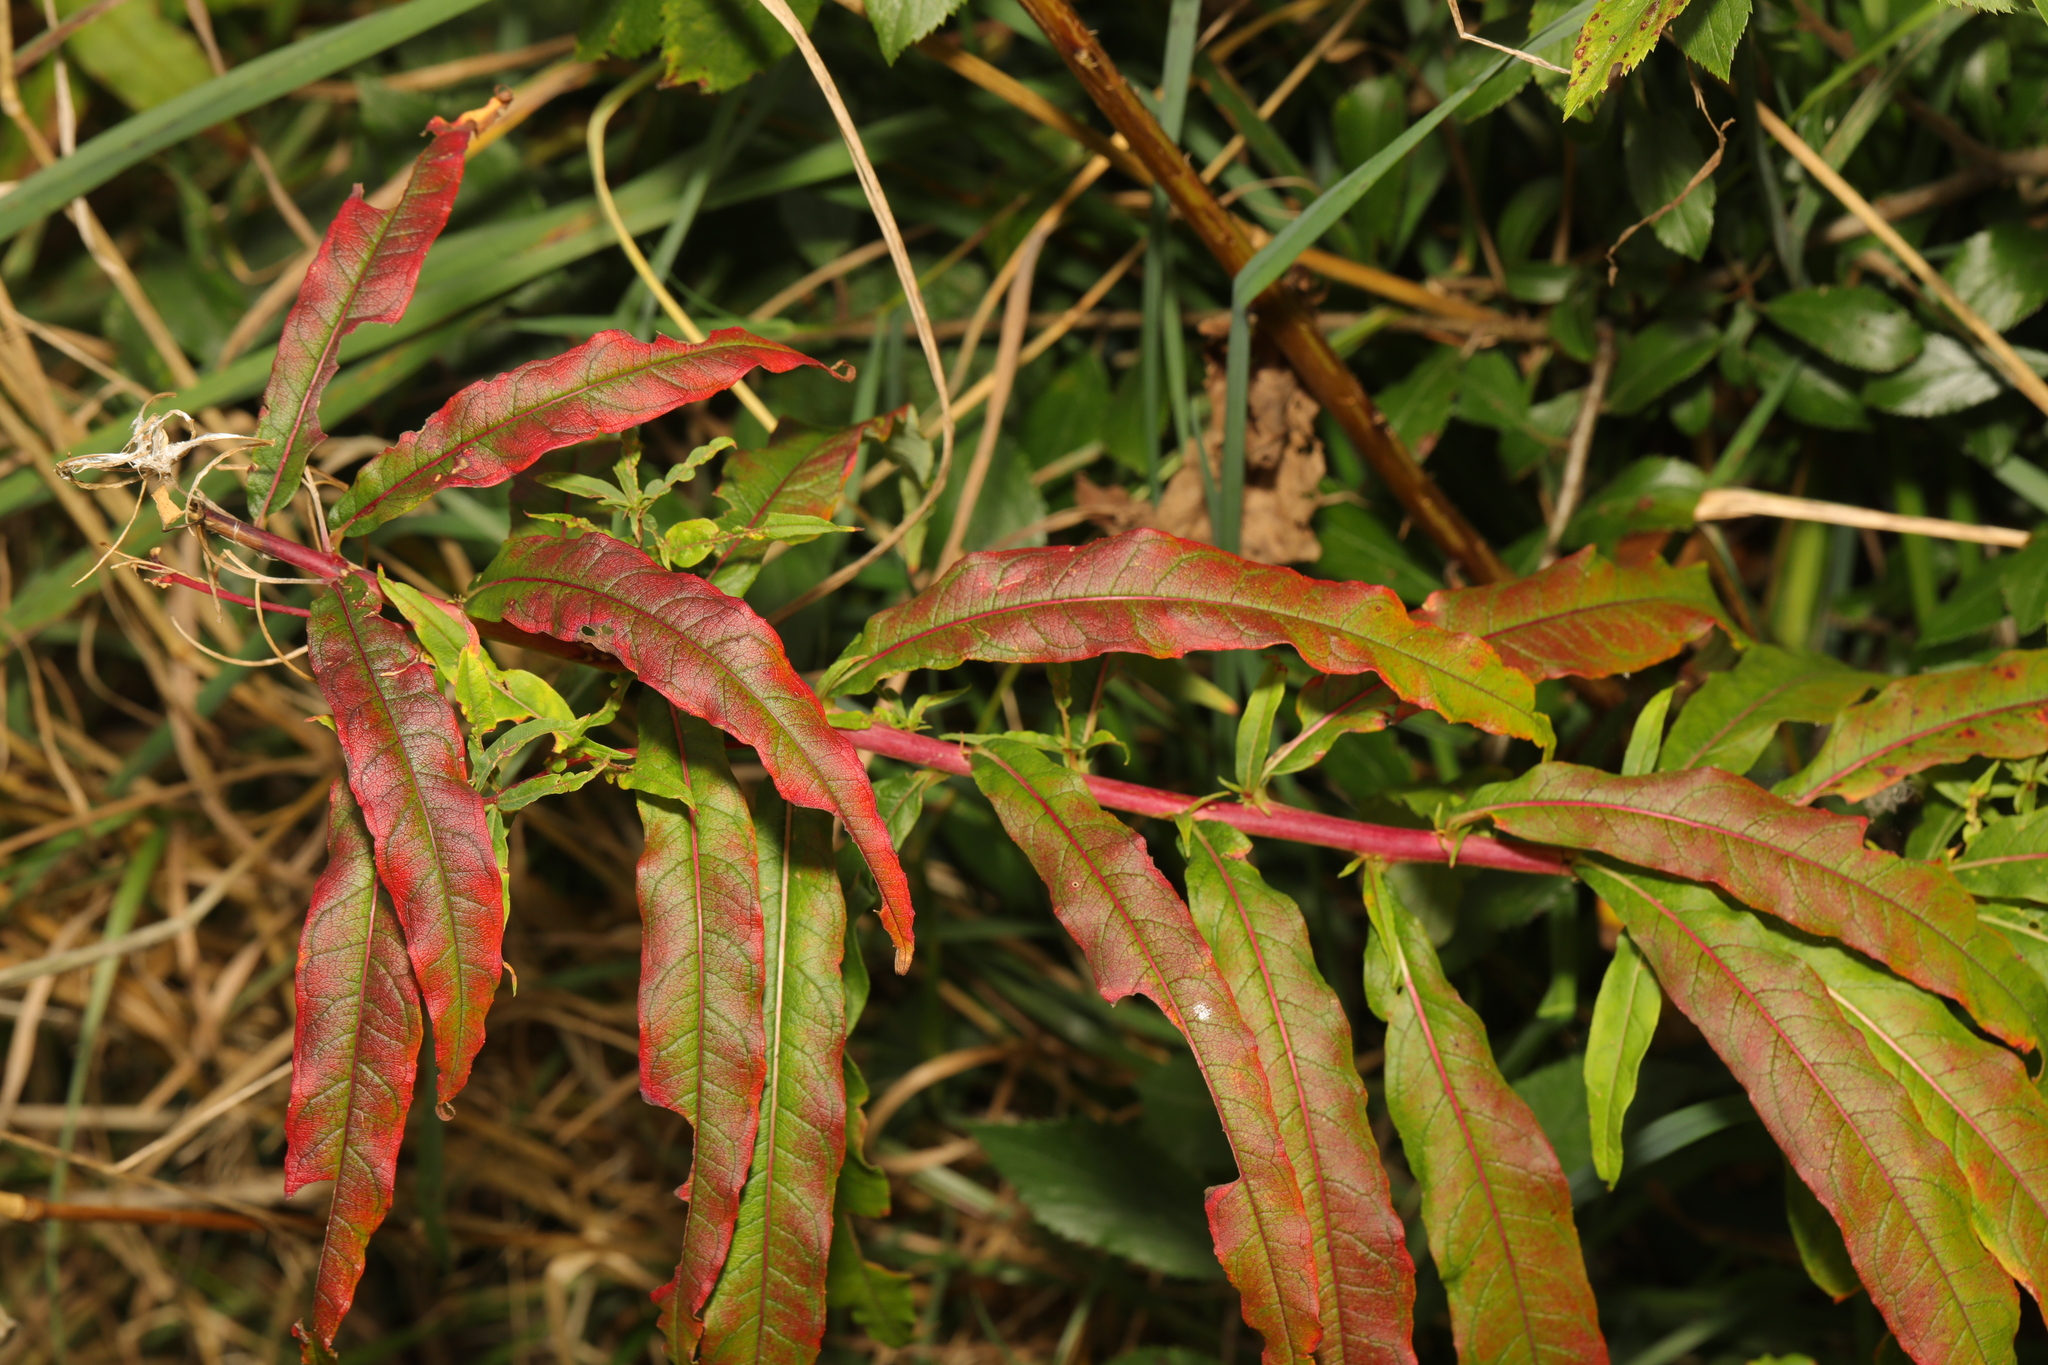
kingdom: Plantae
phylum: Tracheophyta
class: Magnoliopsida
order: Myrtales
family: Onagraceae
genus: Chamaenerion
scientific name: Chamaenerion angustifolium
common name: Fireweed
